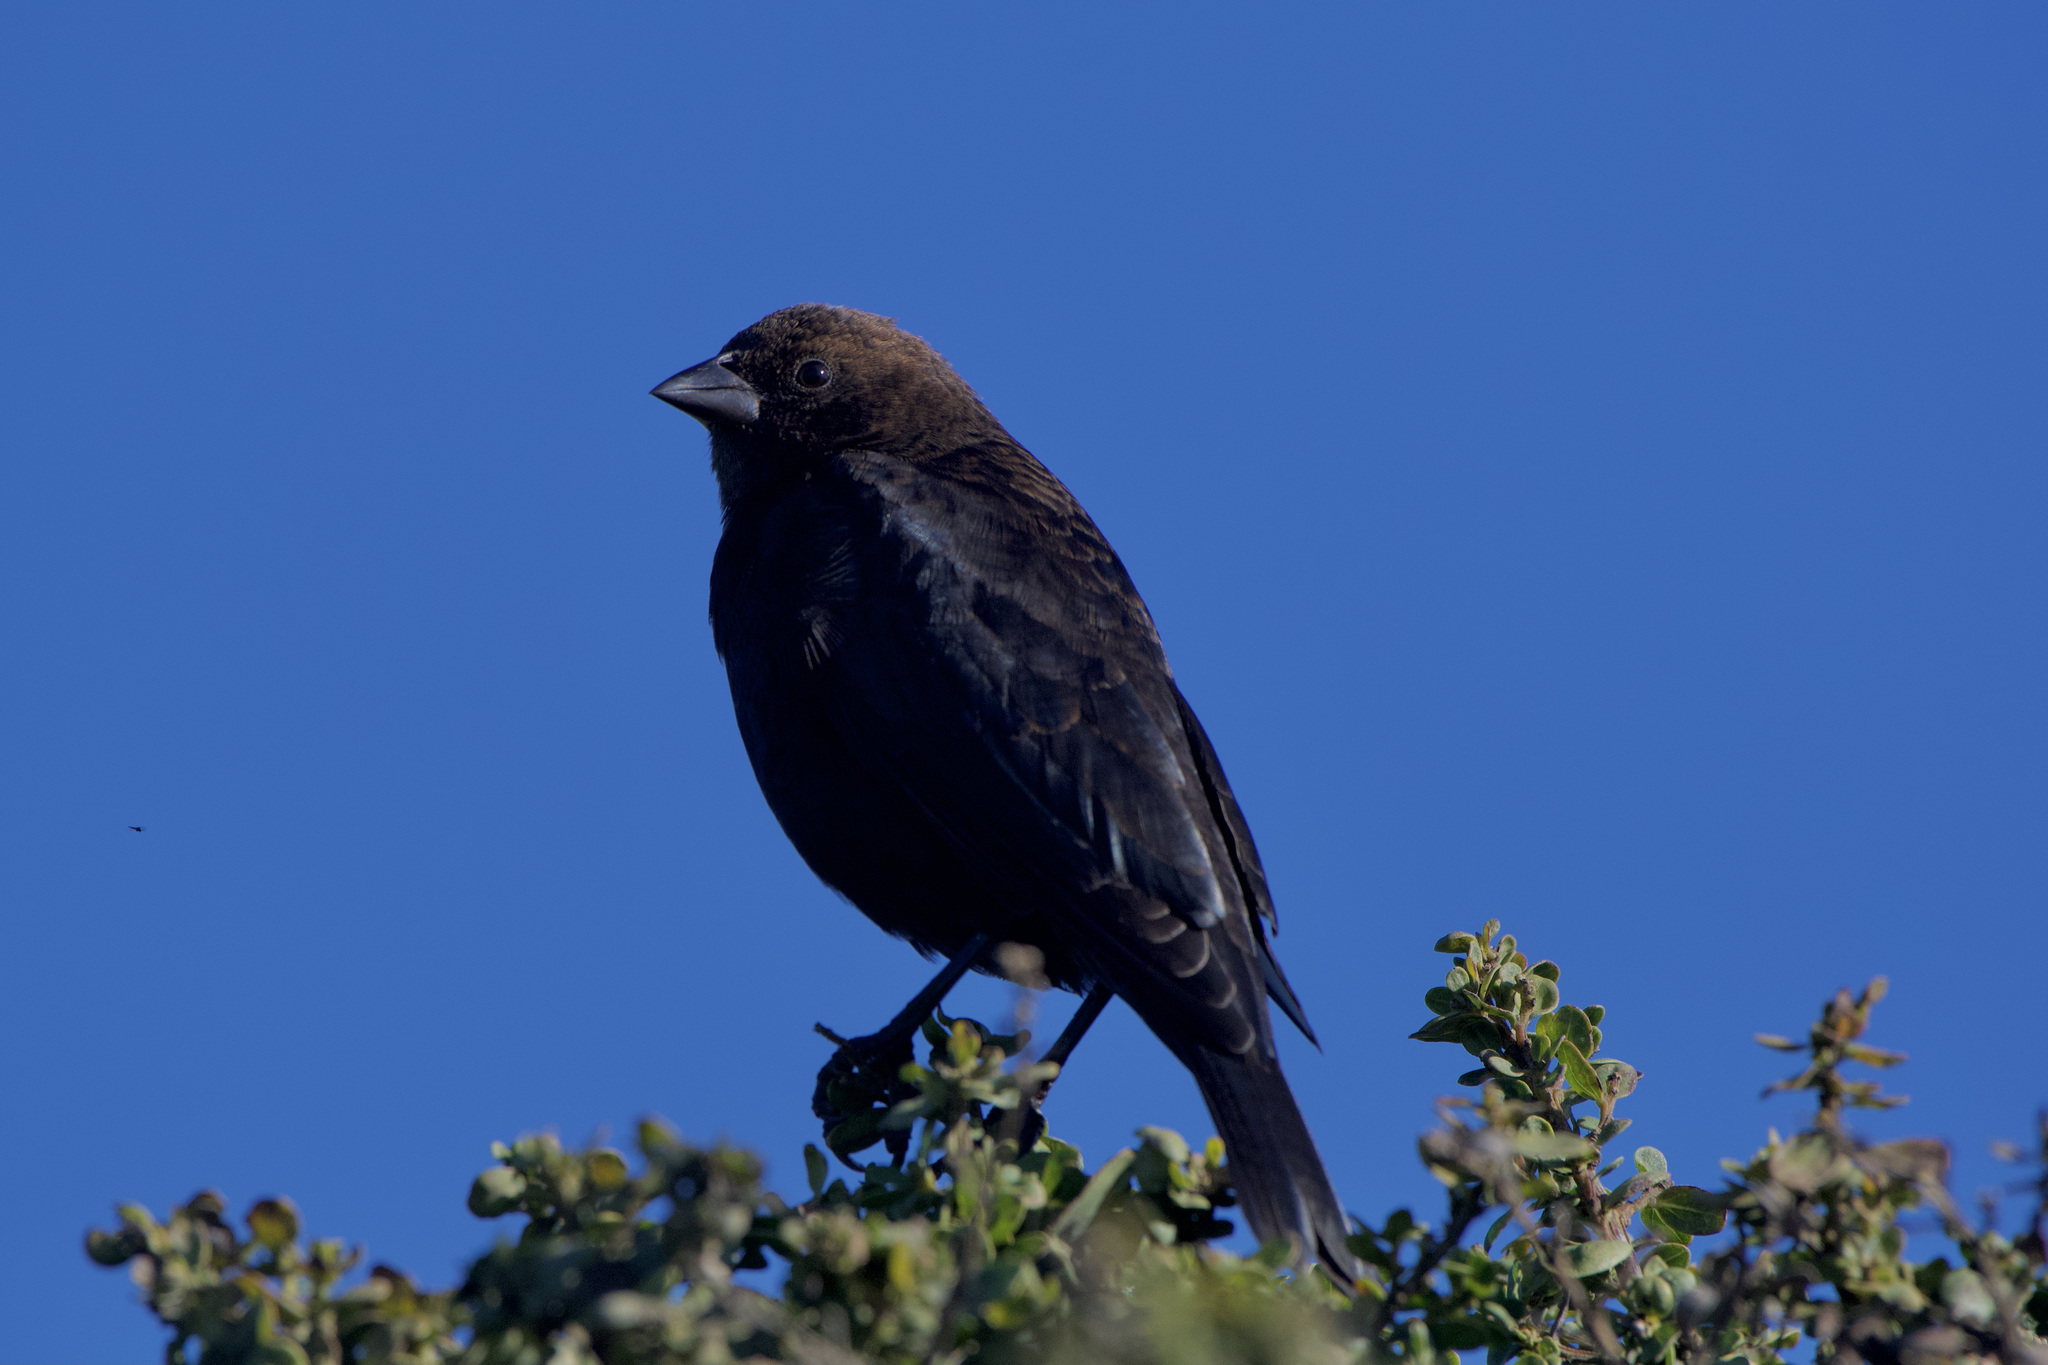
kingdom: Animalia
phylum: Chordata
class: Aves
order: Passeriformes
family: Icteridae
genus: Molothrus
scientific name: Molothrus ater
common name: Brown-headed cowbird
